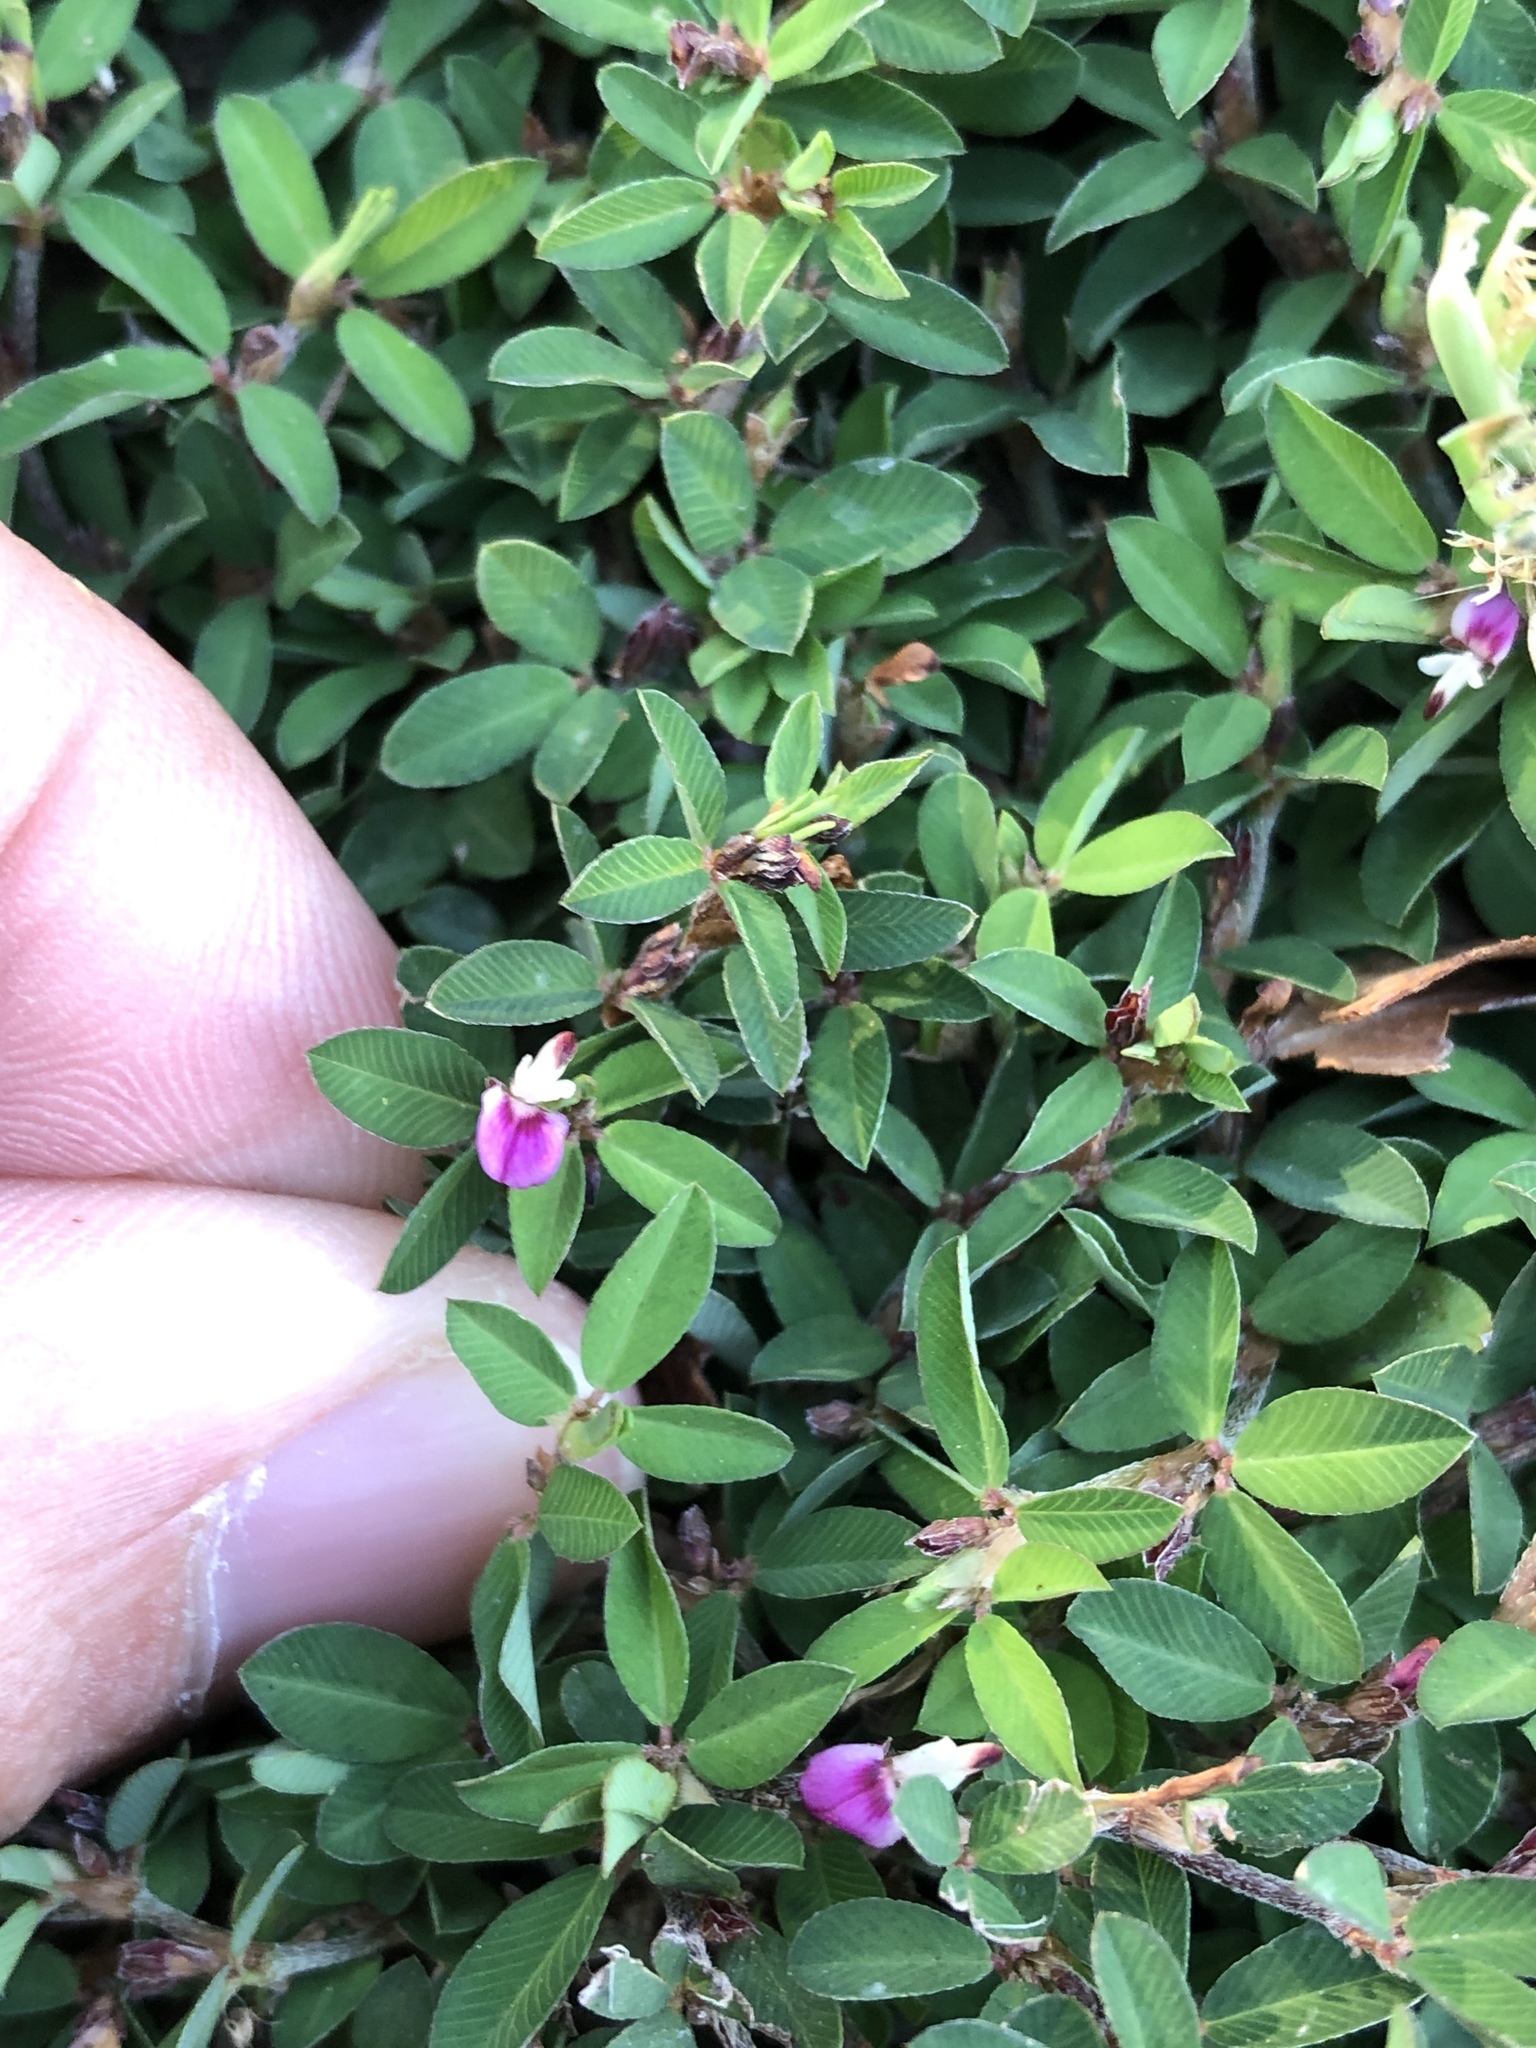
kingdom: Plantae
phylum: Tracheophyta
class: Magnoliopsida
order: Fabales
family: Fabaceae
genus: Kummerowia
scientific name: Kummerowia striata
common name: Japanese clover
